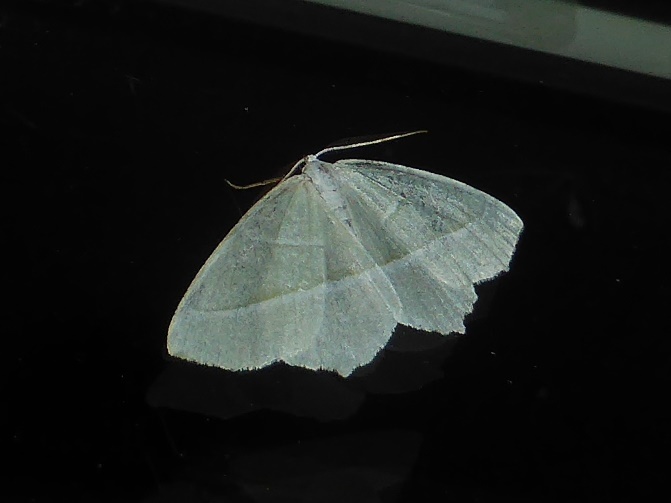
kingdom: Animalia
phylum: Arthropoda
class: Insecta
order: Lepidoptera
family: Geometridae
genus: Campaea
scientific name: Campaea margaritaria
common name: Light emerald
